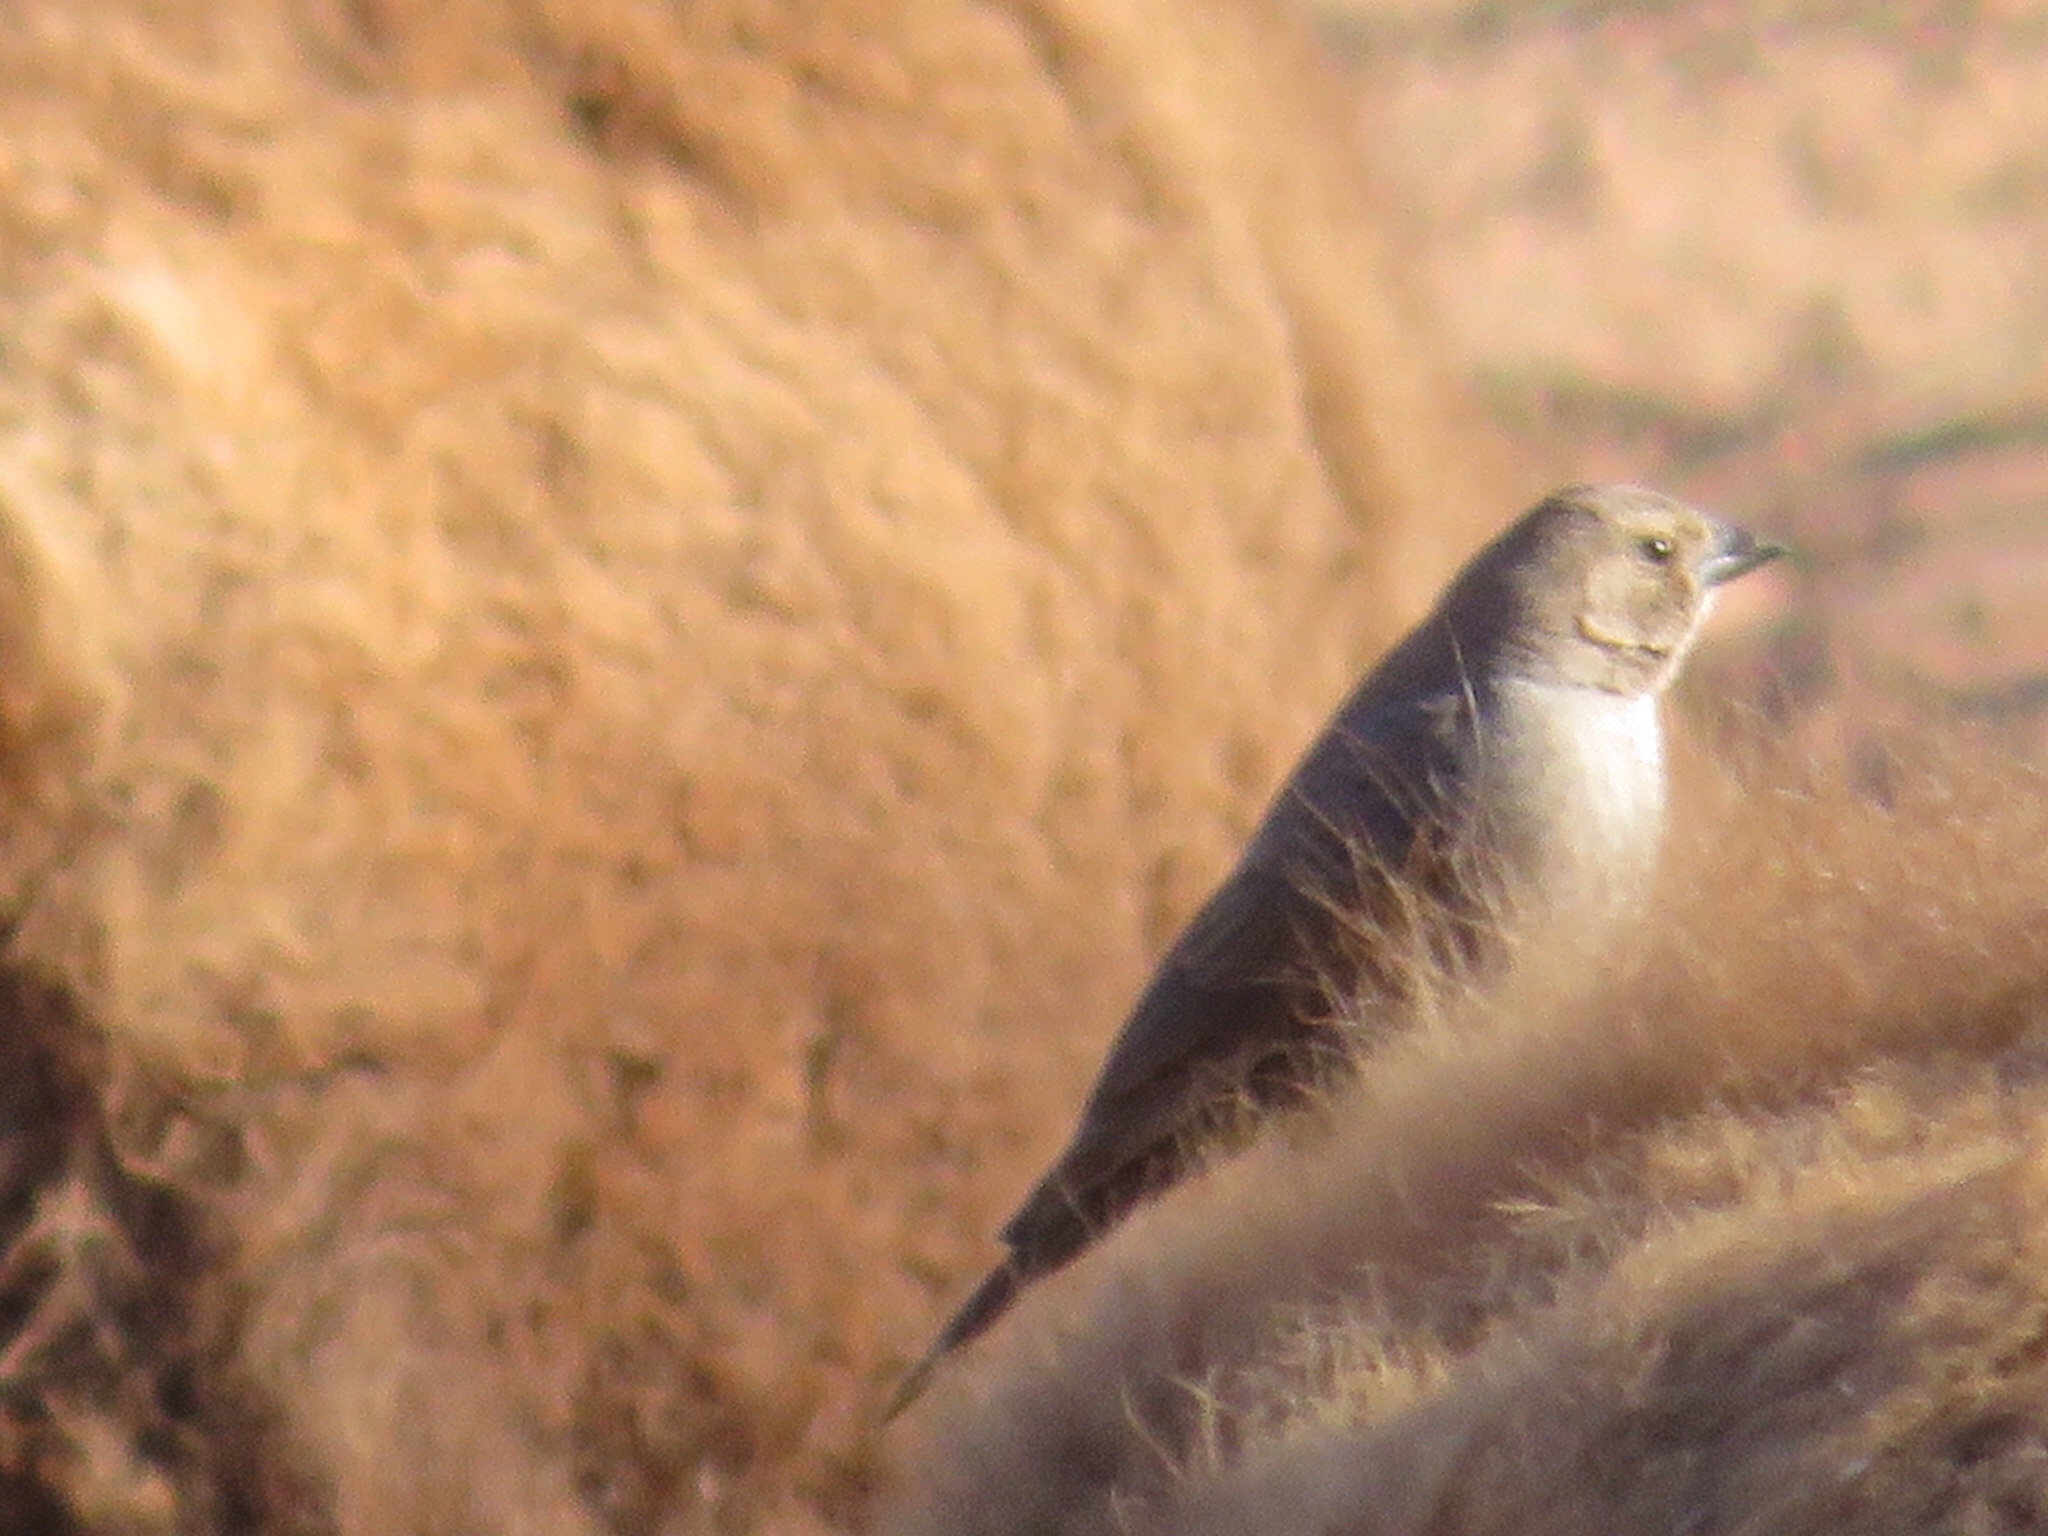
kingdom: Animalia
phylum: Chordata
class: Aves
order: Passeriformes
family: Icteridae
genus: Molothrus
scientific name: Molothrus ater
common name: Brown-headed cowbird
